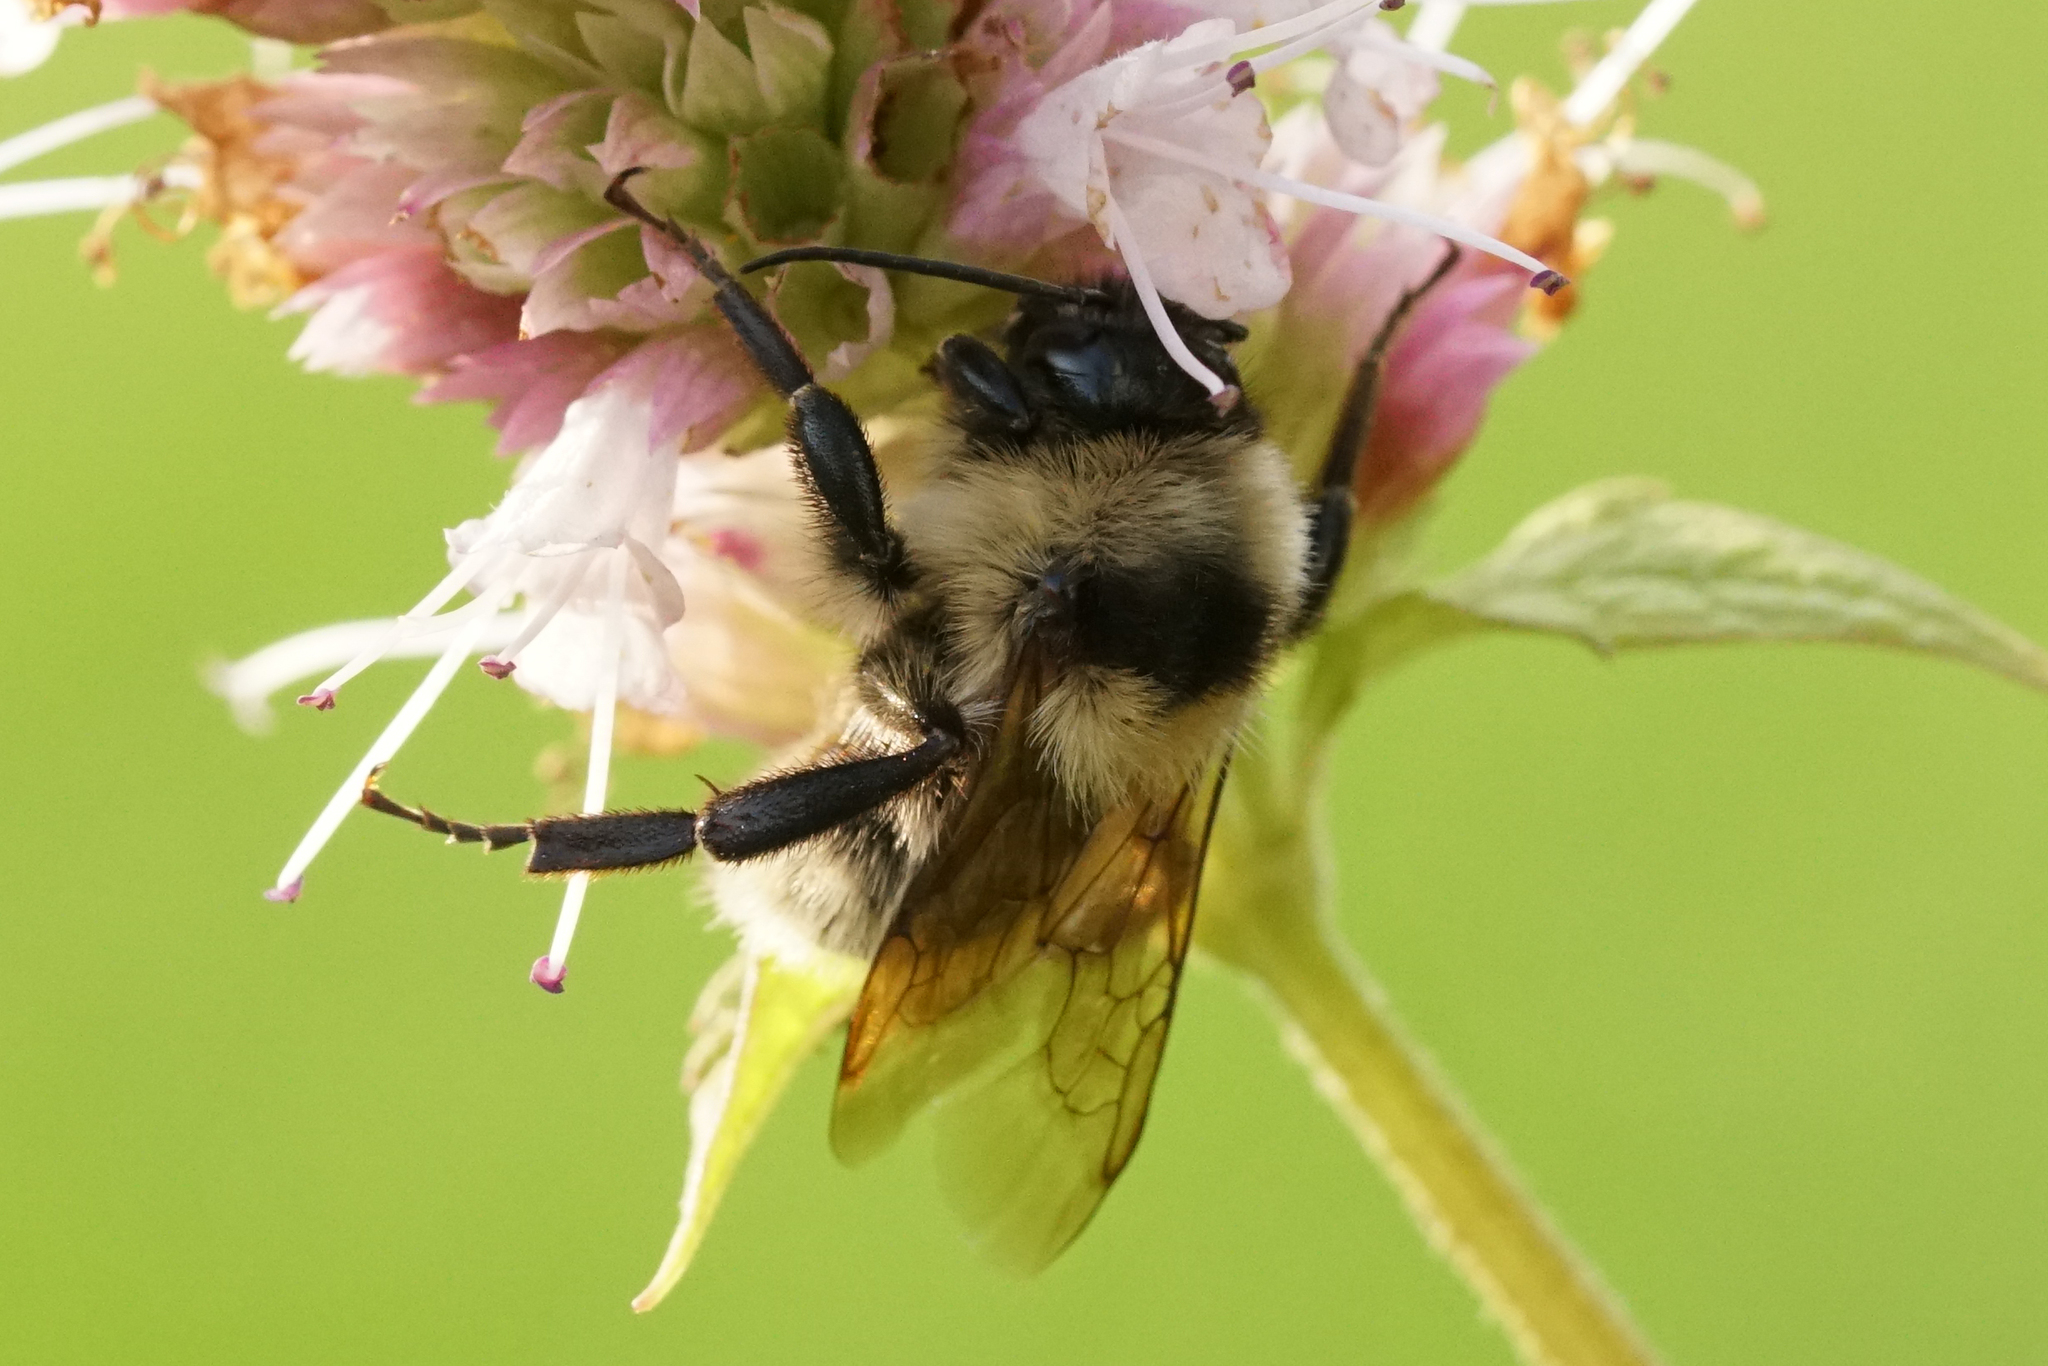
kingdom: Animalia
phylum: Arthropoda
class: Insecta
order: Hymenoptera
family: Apidae
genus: Bombus
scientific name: Bombus fervidus
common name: Yellow bumble bee
